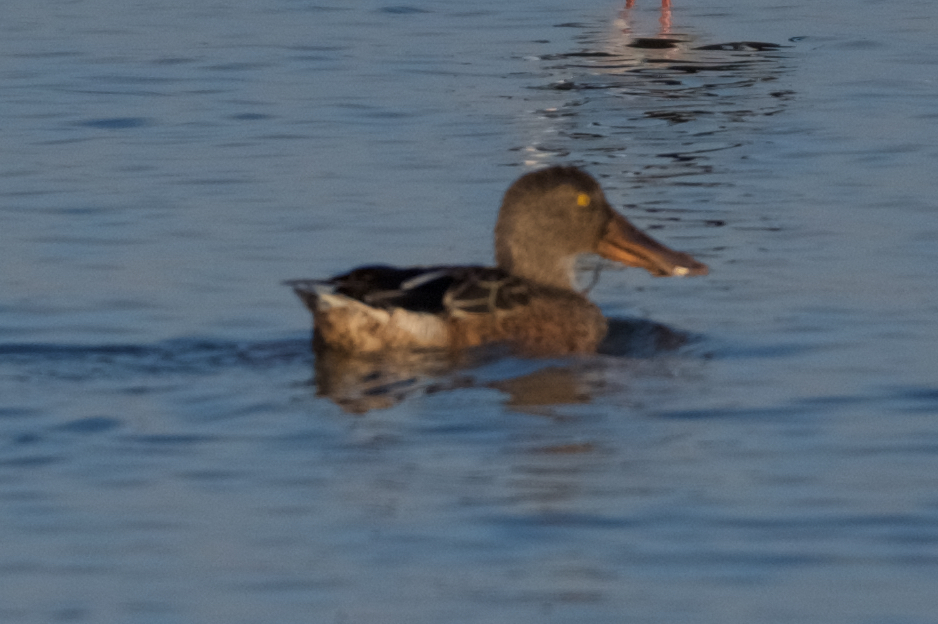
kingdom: Animalia
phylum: Chordata
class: Aves
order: Anseriformes
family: Anatidae
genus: Spatula
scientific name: Spatula clypeata
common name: Northern shoveler
